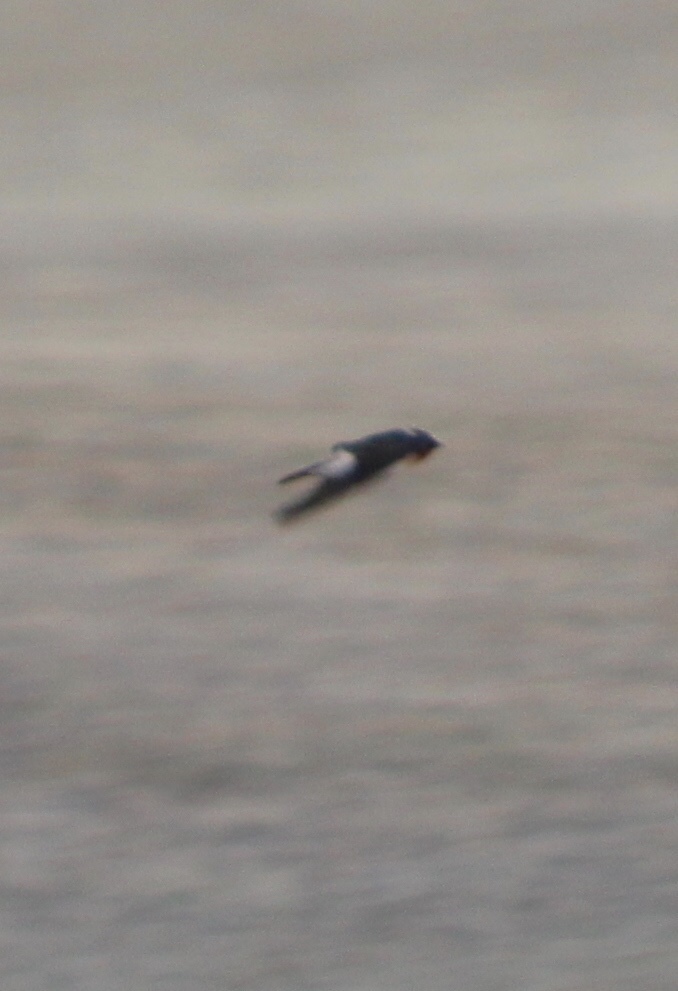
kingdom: Animalia
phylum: Chordata
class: Aves
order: Passeriformes
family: Hirundinidae
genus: Petrochelidon
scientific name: Petrochelidon pyrrhonota
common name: American cliff swallow
